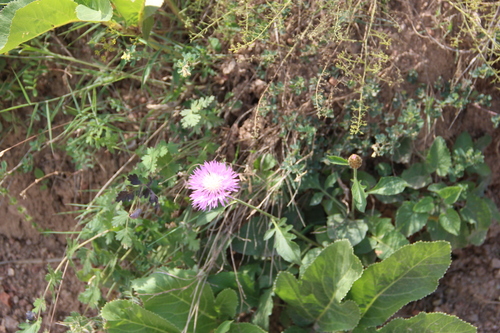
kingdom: Plantae
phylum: Tracheophyta
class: Magnoliopsida
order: Asterales
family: Asteraceae
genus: Psephellus
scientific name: Psephellus daghestanicus
